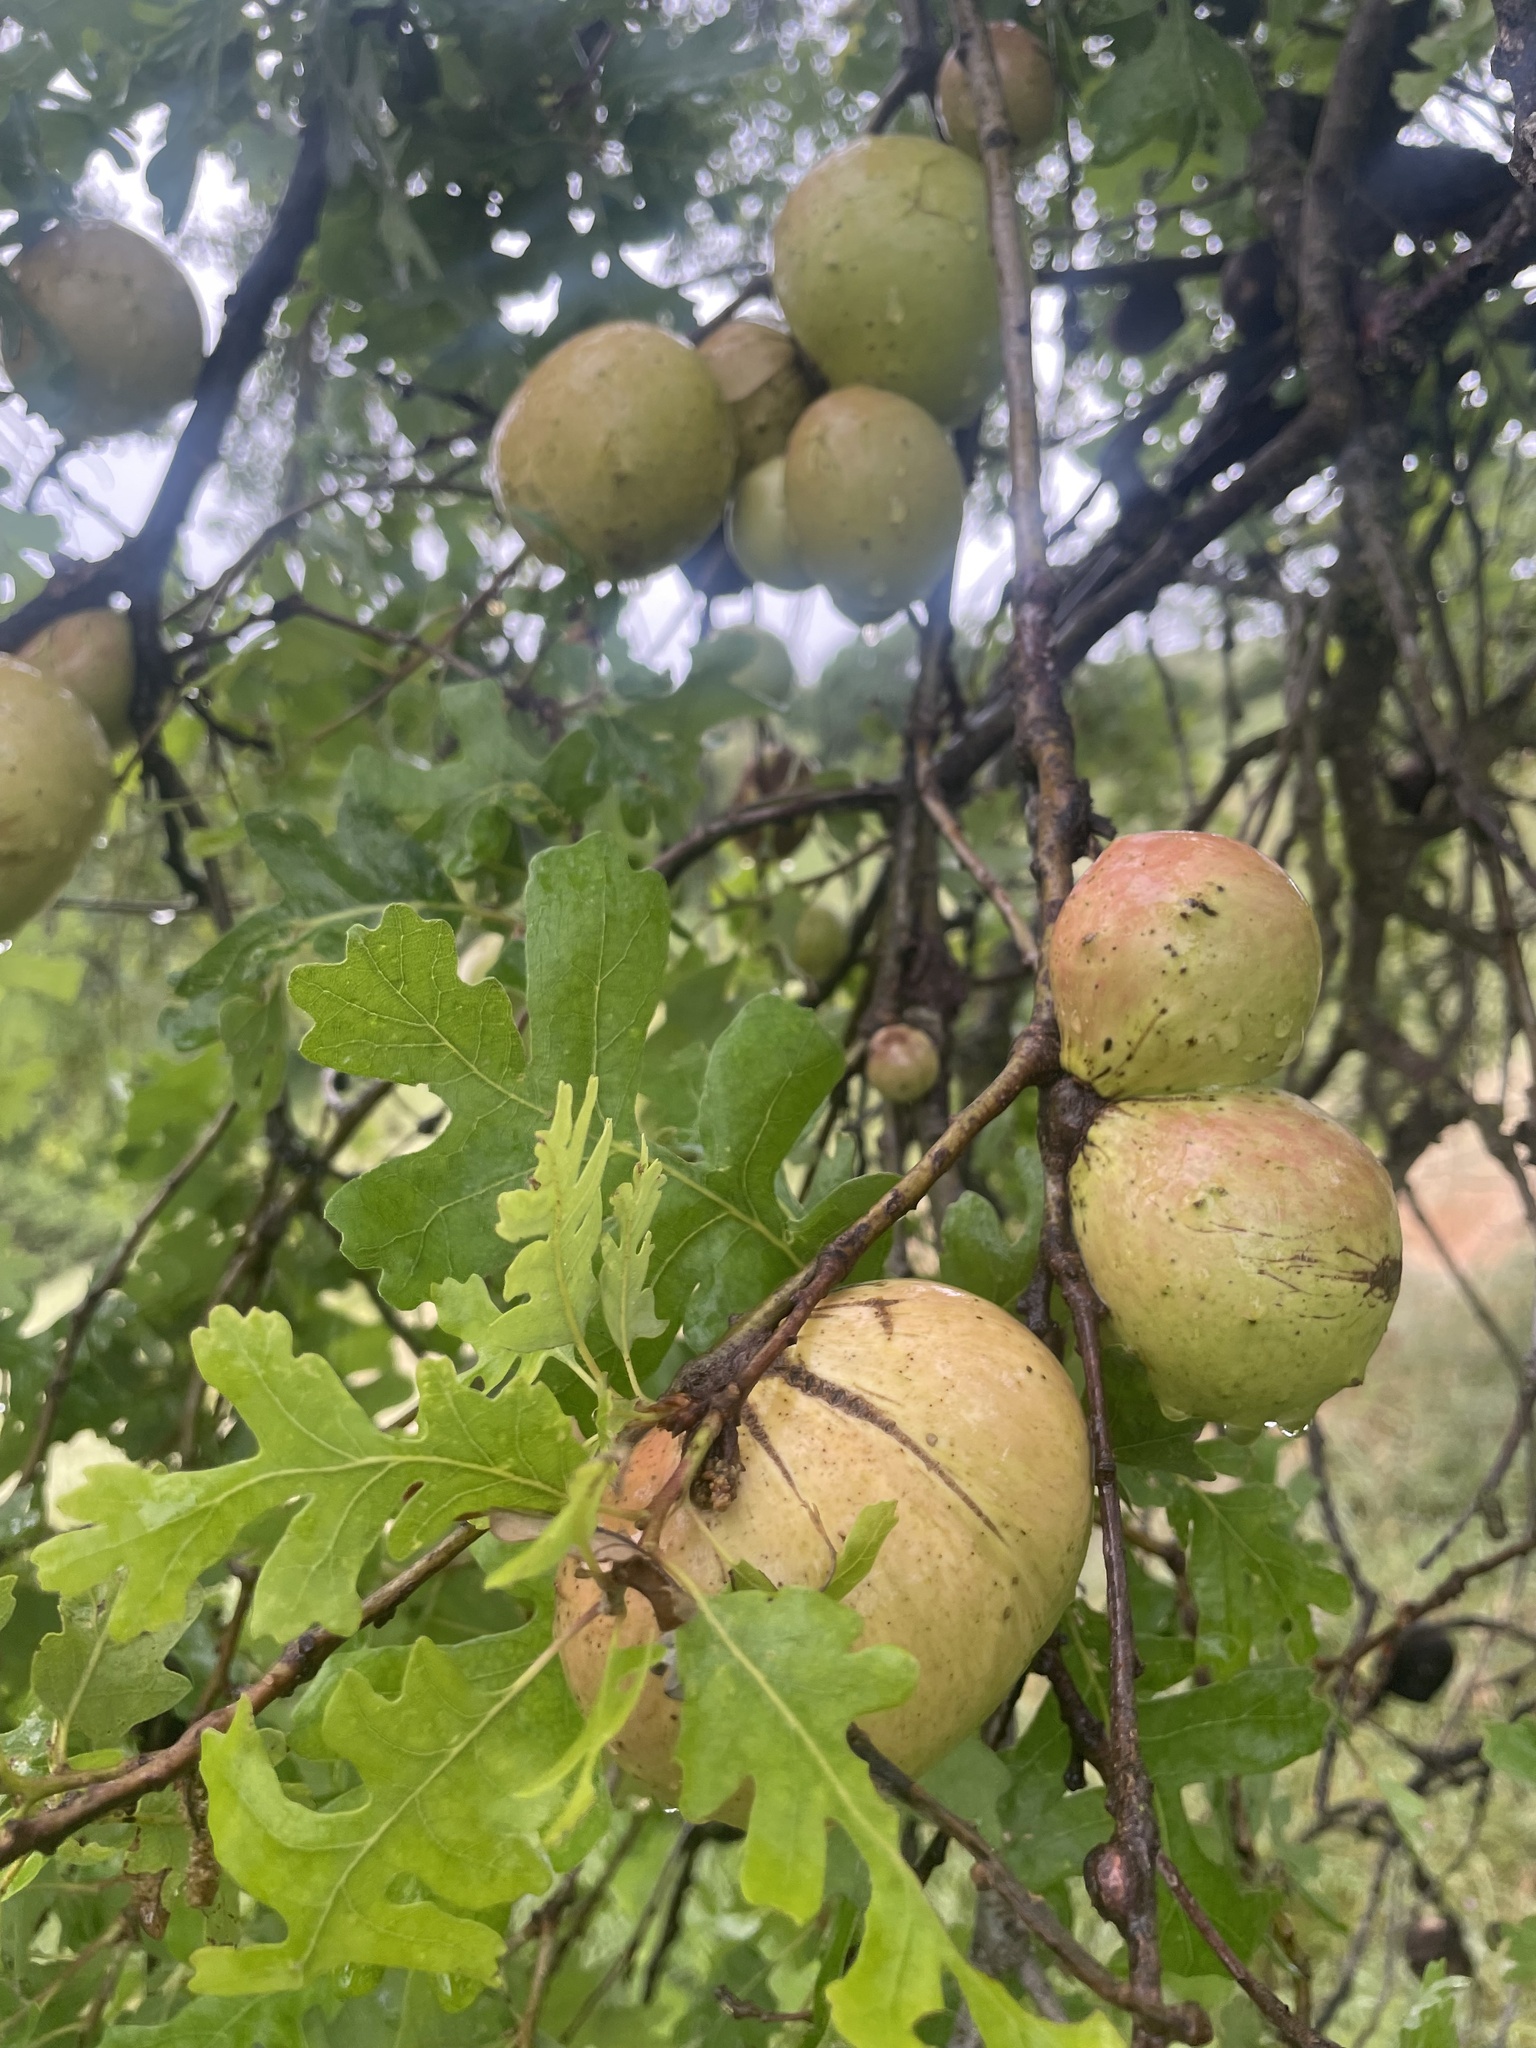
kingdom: Animalia
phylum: Arthropoda
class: Insecta
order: Hymenoptera
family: Cynipidae
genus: Andricus
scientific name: Andricus quercuscalifornicus
